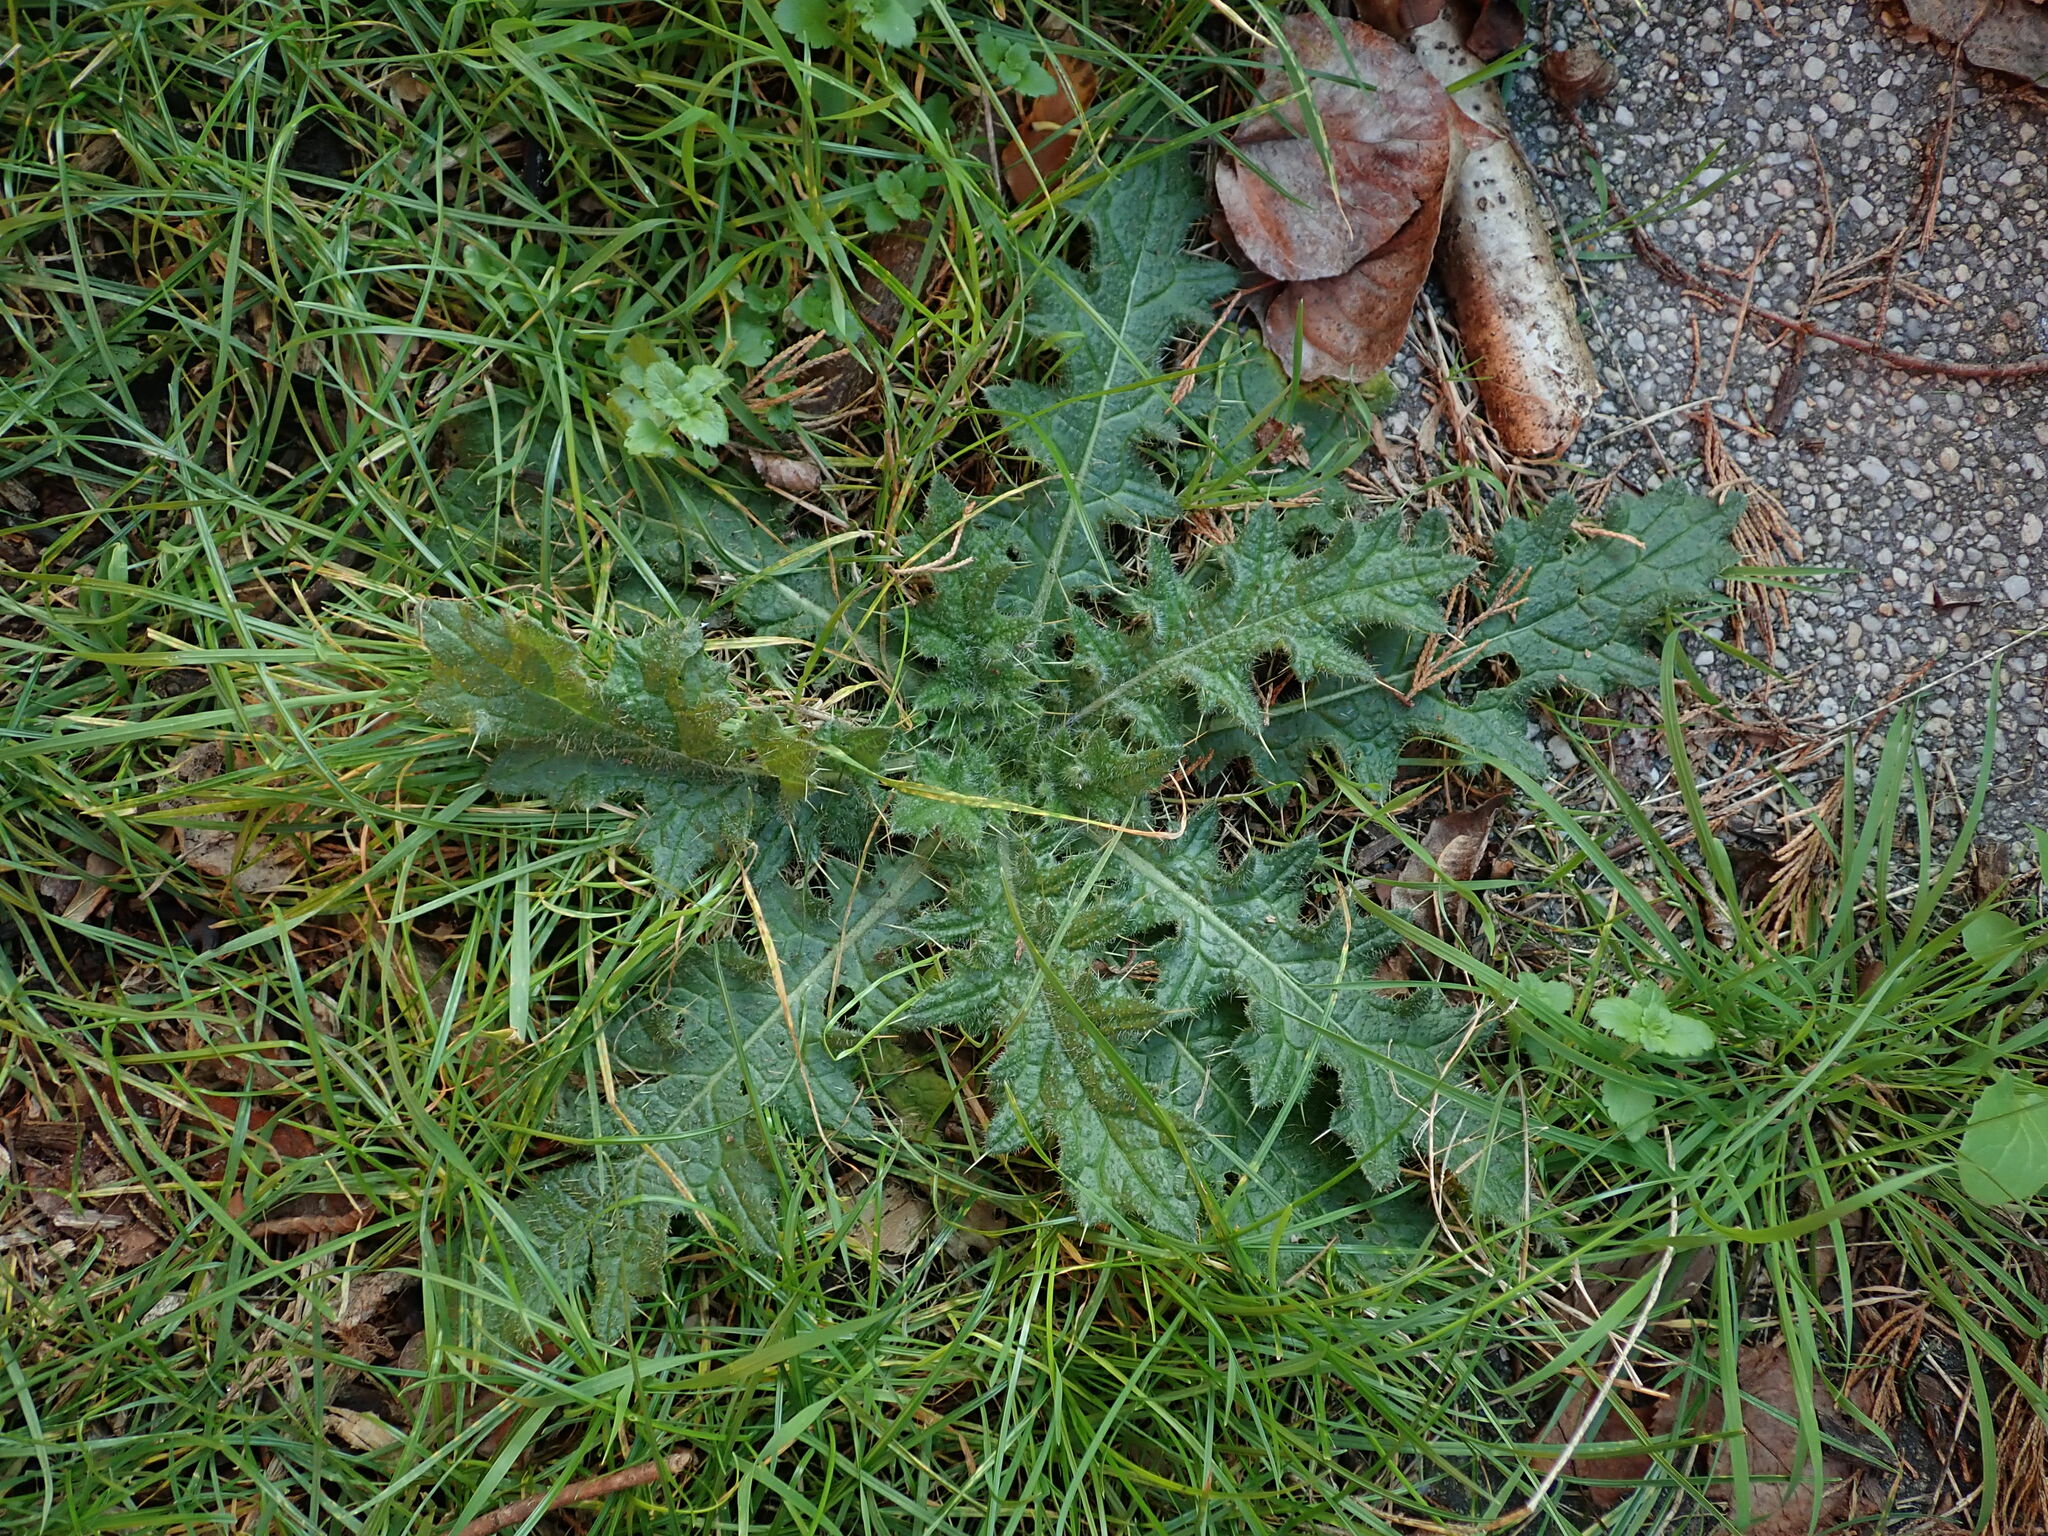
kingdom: Plantae
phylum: Tracheophyta
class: Magnoliopsida
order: Asterales
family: Asteraceae
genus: Cirsium
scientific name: Cirsium vulgare
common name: Bull thistle
